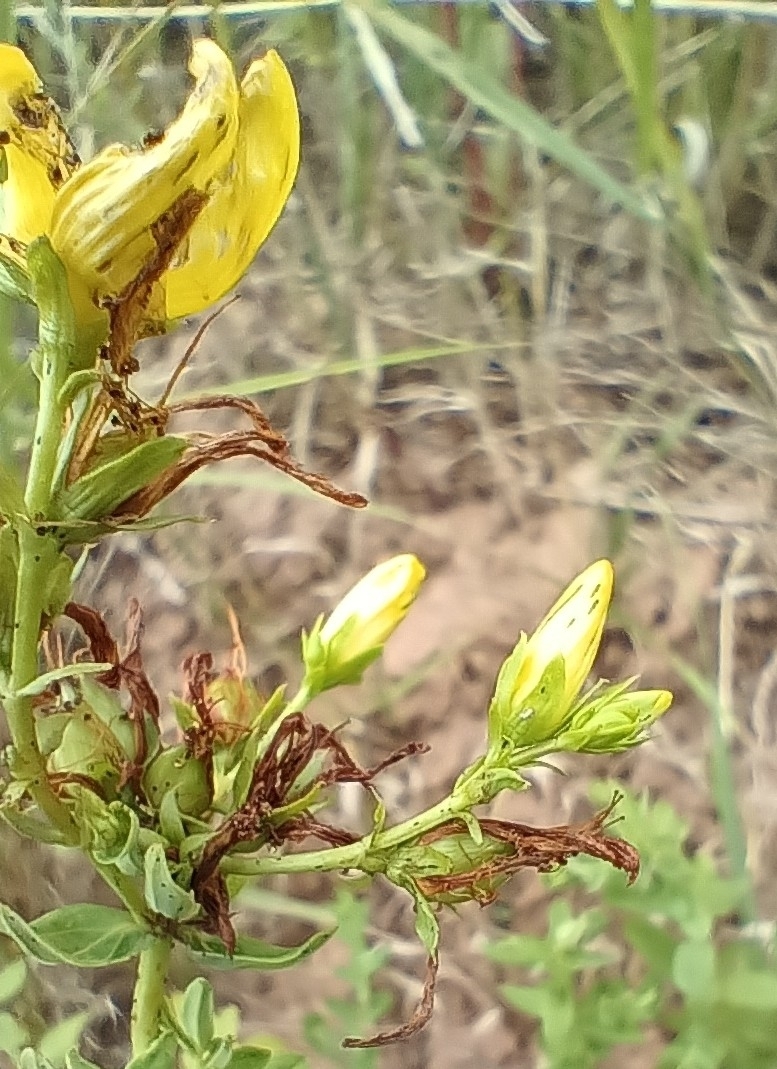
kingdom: Plantae
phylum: Tracheophyta
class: Magnoliopsida
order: Malpighiales
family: Hypericaceae
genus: Hypericum
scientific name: Hypericum perforatum
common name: Common st. johnswort
